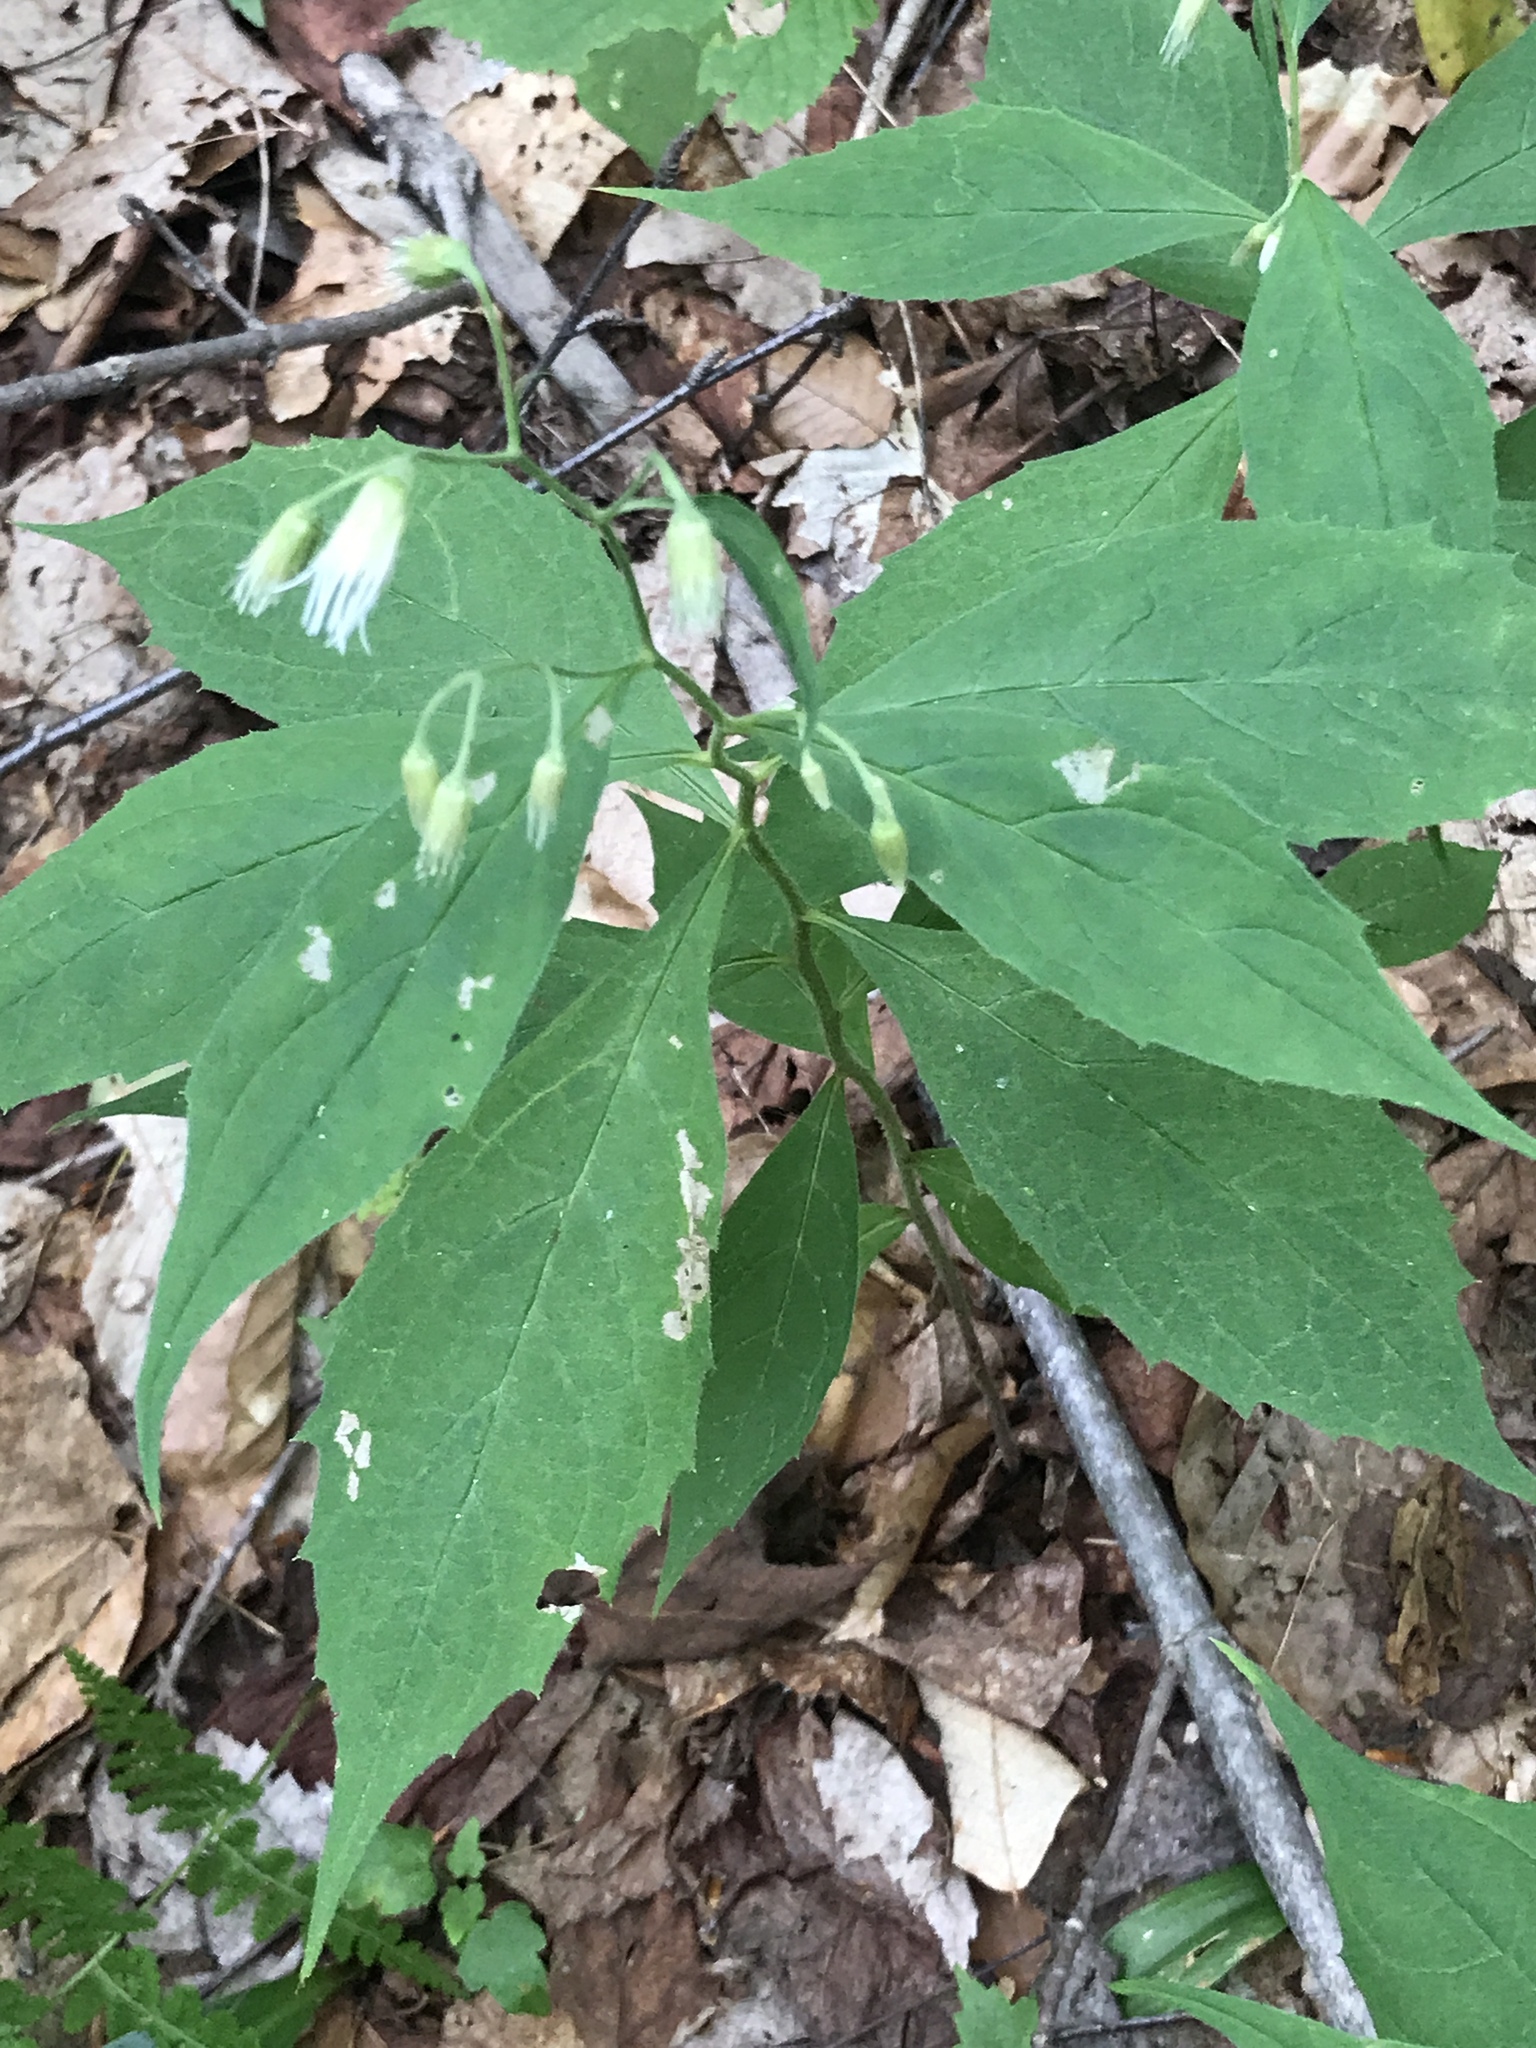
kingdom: Plantae
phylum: Tracheophyta
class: Magnoliopsida
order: Asterales
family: Asteraceae
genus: Oclemena
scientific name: Oclemena acuminata
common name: Mountain aster
